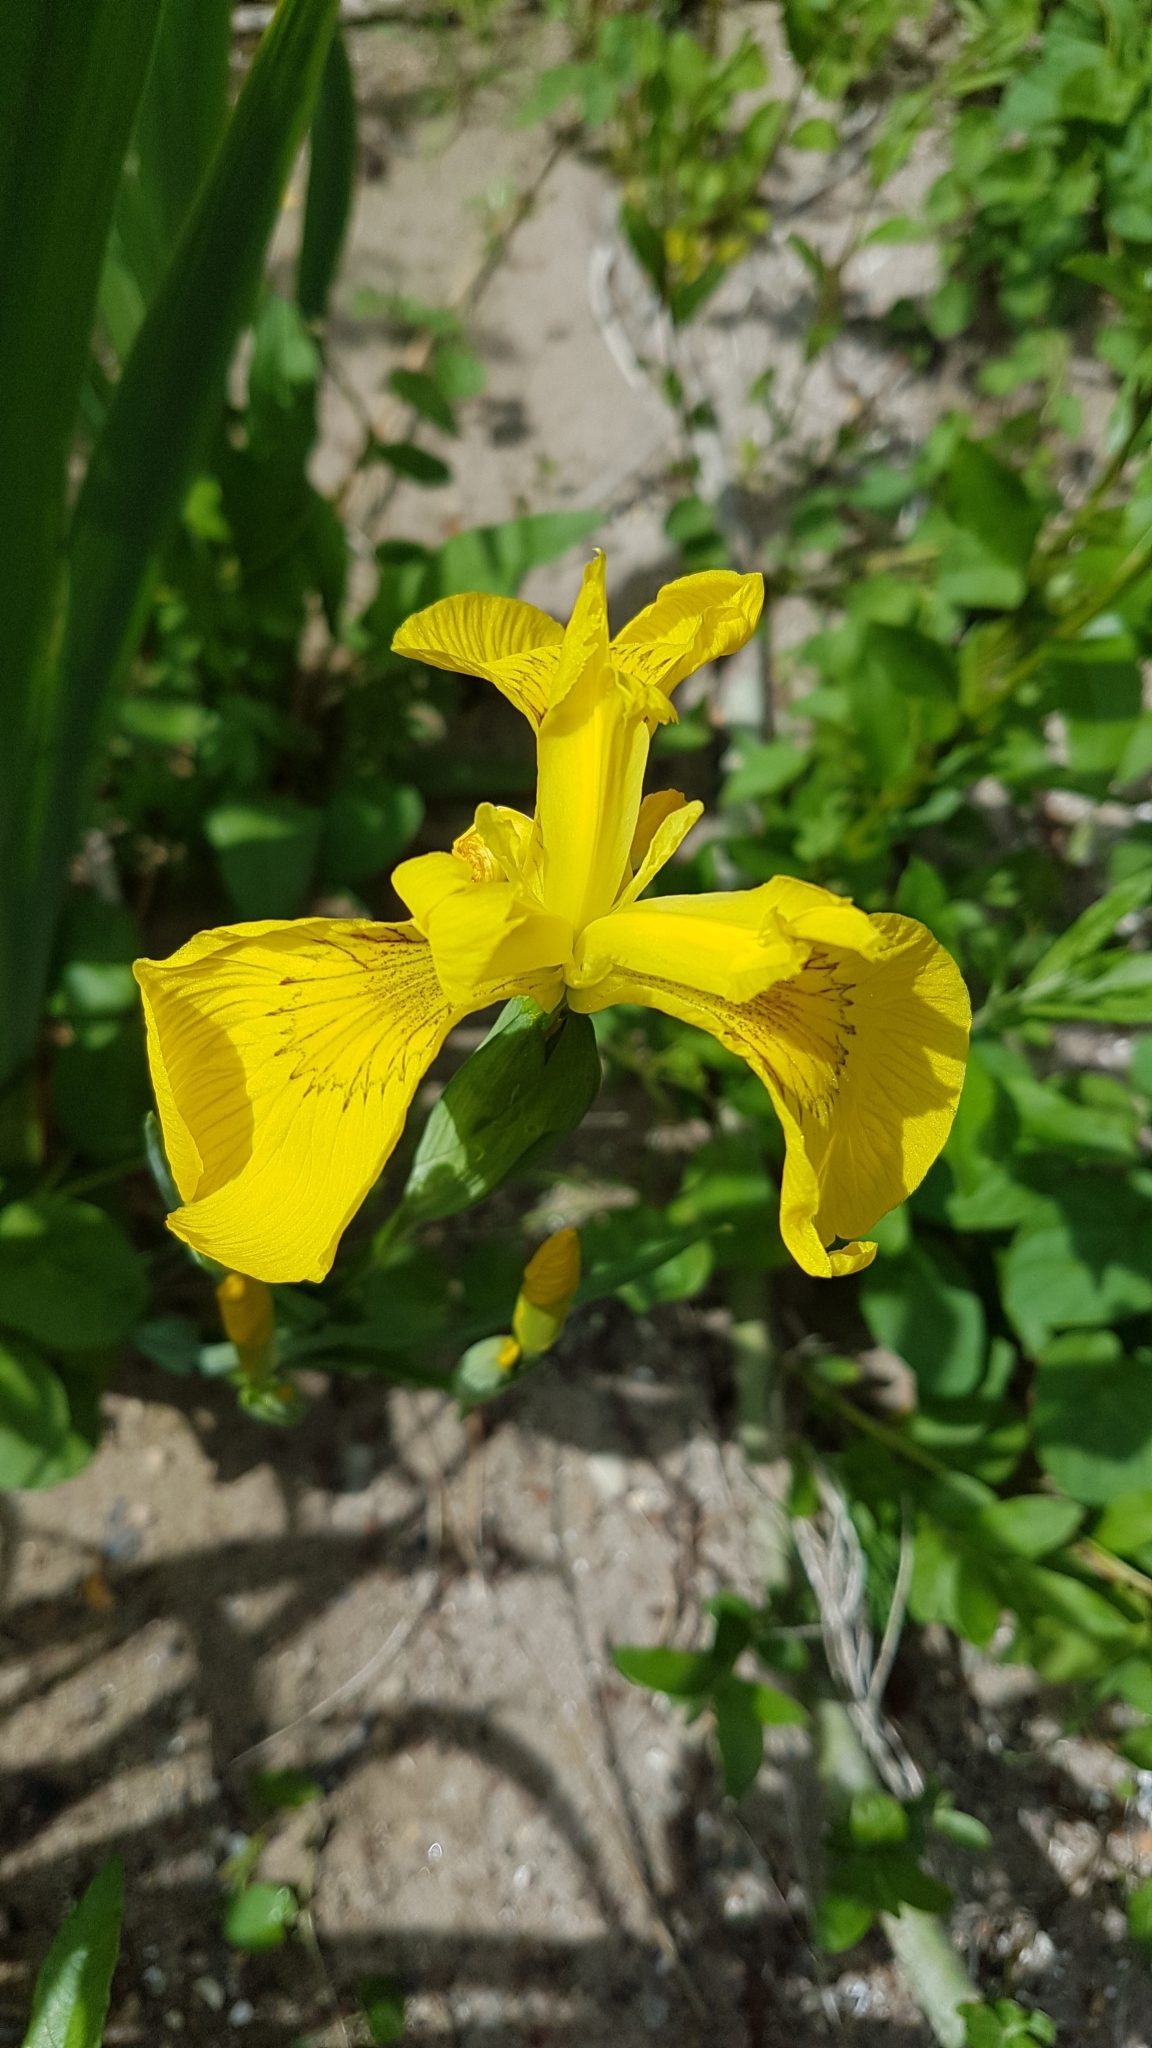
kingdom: Plantae
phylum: Tracheophyta
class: Liliopsida
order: Asparagales
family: Iridaceae
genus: Iris
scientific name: Iris pseudacorus
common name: Yellow flag
